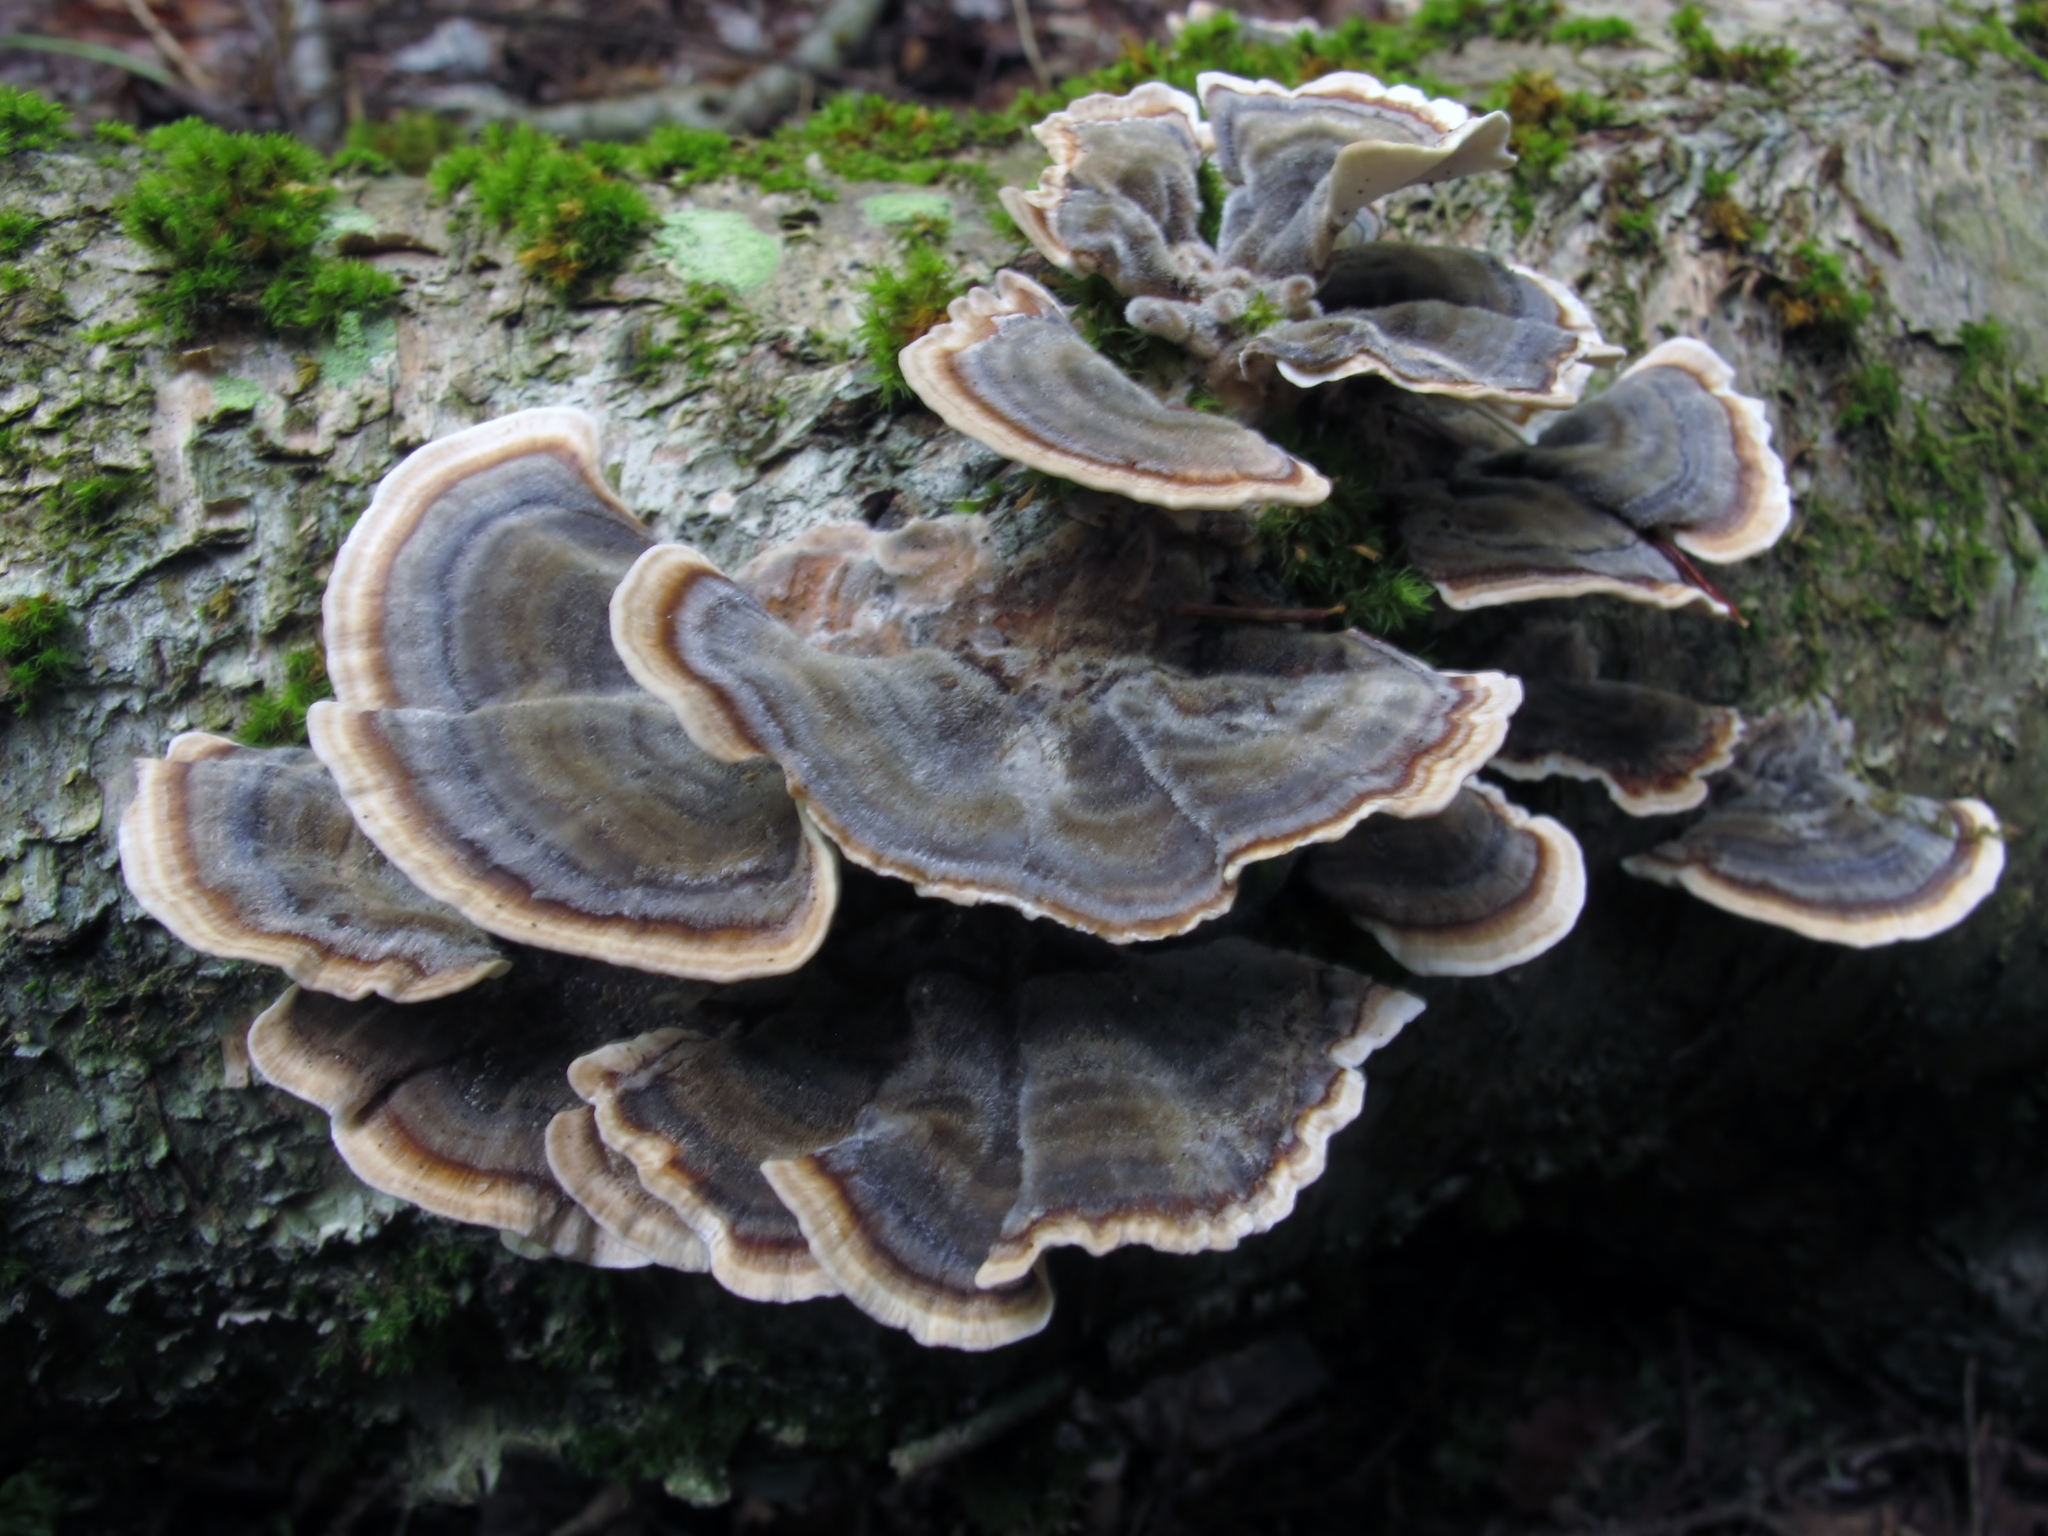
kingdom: Fungi
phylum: Basidiomycota
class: Agaricomycetes
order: Polyporales
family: Polyporaceae
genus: Trametes
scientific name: Trametes versicolor
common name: Turkeytail
